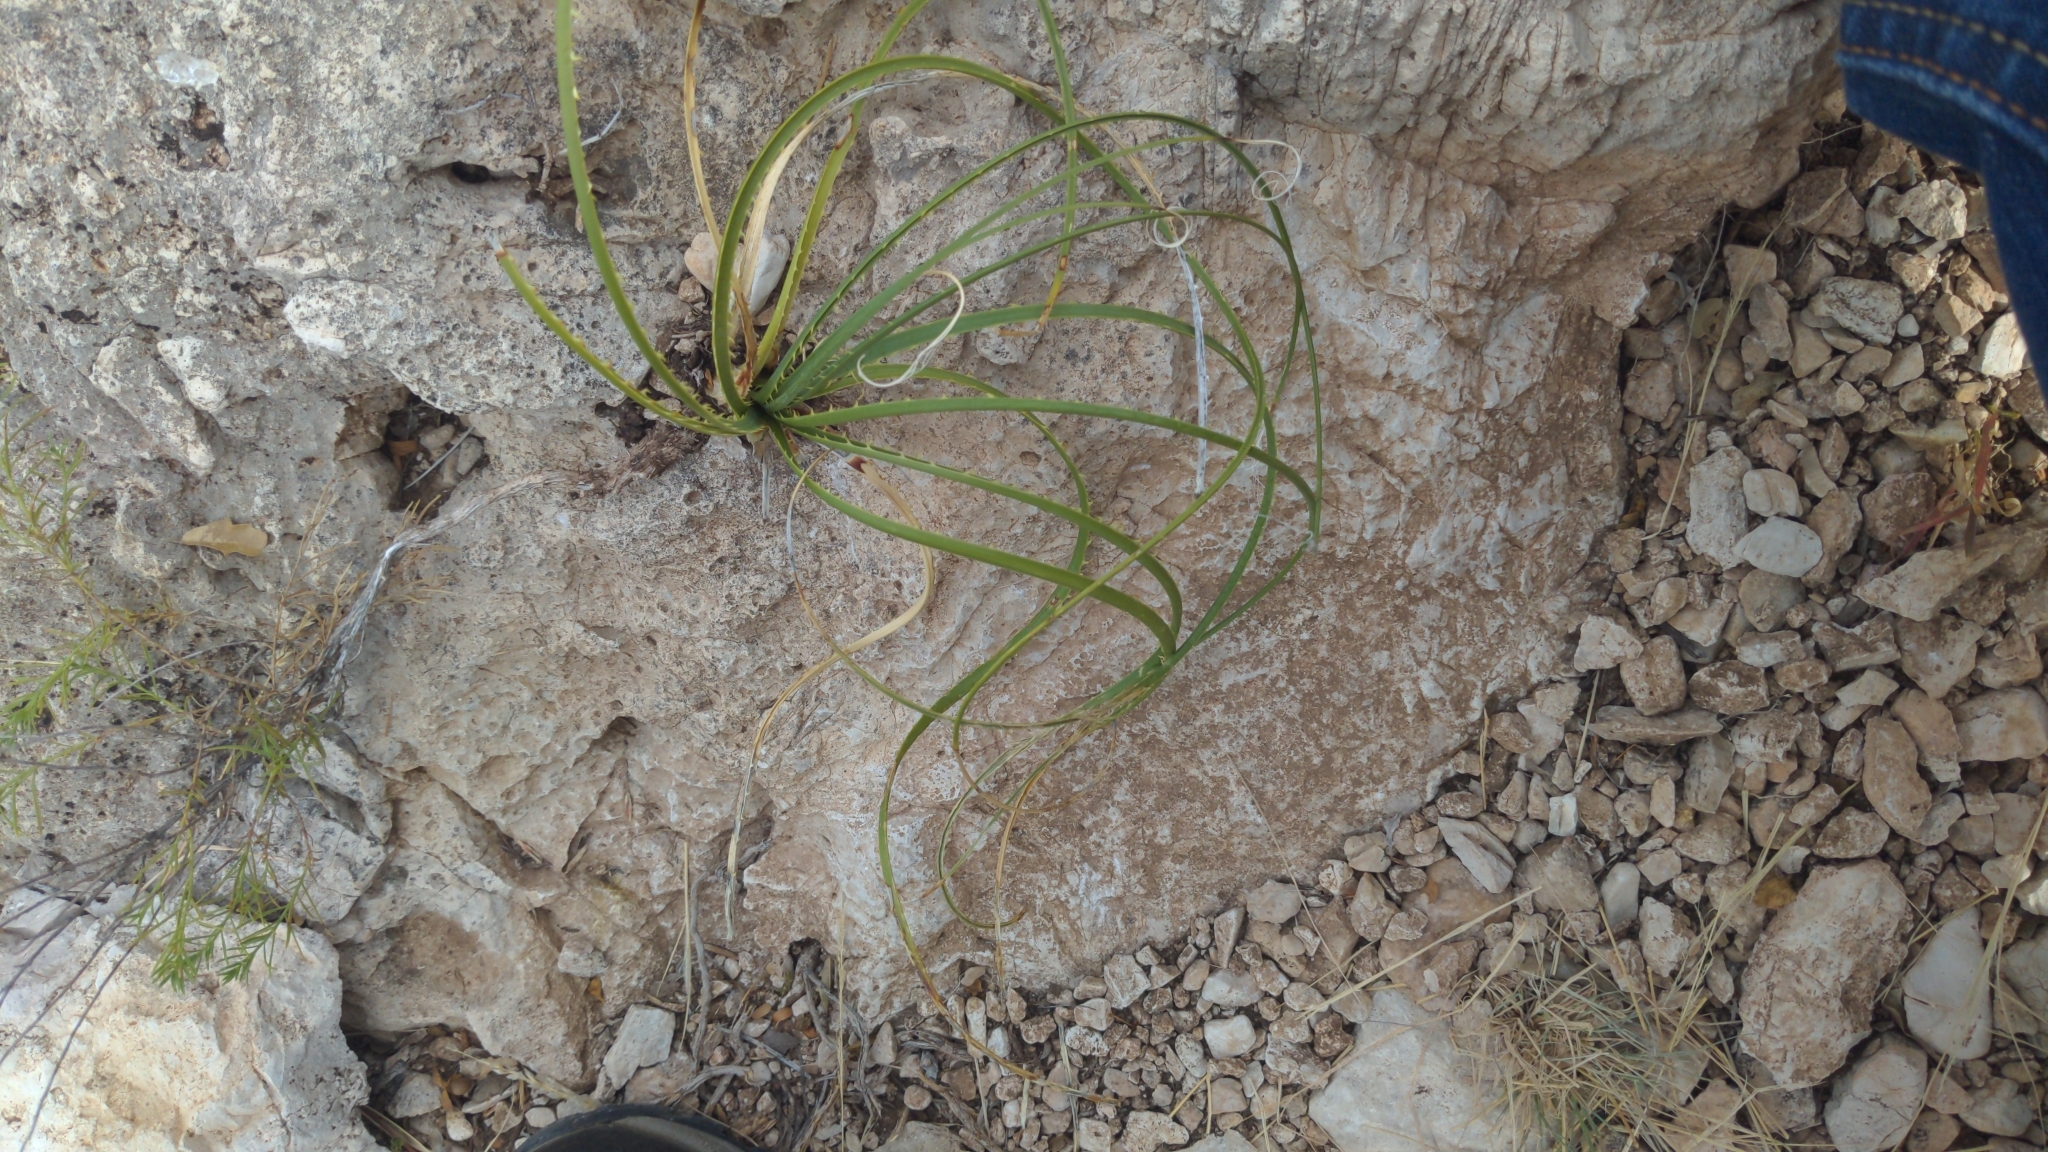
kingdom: Plantae
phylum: Tracheophyta
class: Liliopsida
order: Asparagales
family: Asparagaceae
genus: Dasylirion
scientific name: Dasylirion leiophyllum
